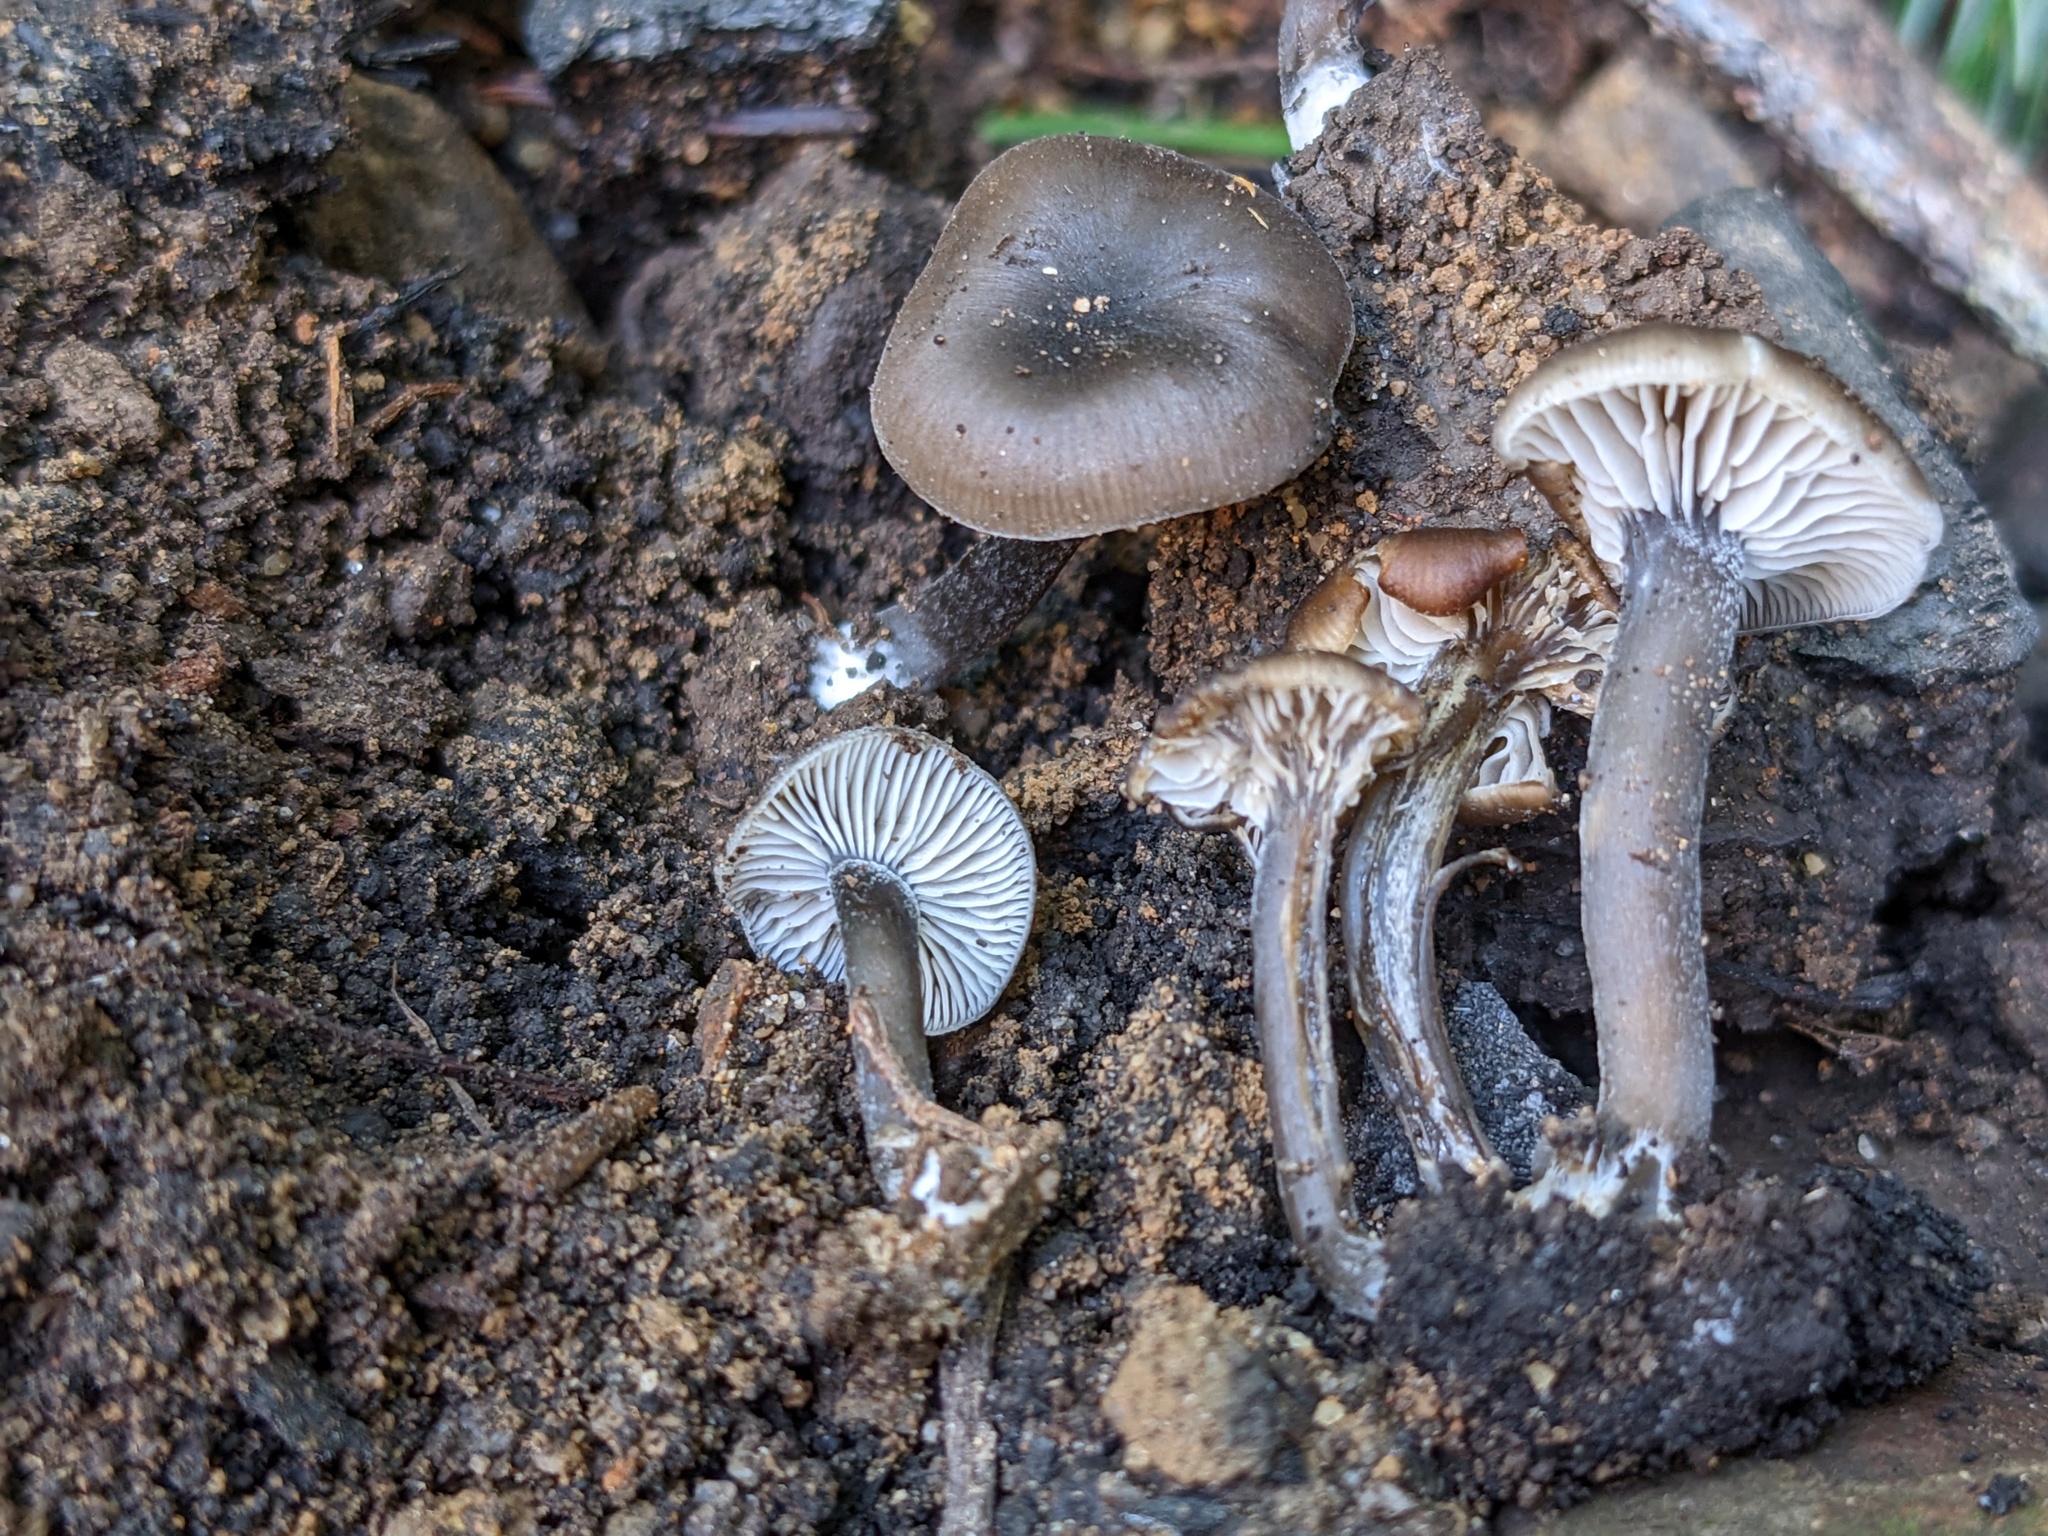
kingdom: Fungi
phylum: Basidiomycota
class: Agaricomycetes
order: Agaricales
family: Tricholomataceae
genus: Myxomphalia
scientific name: Myxomphalia maura
